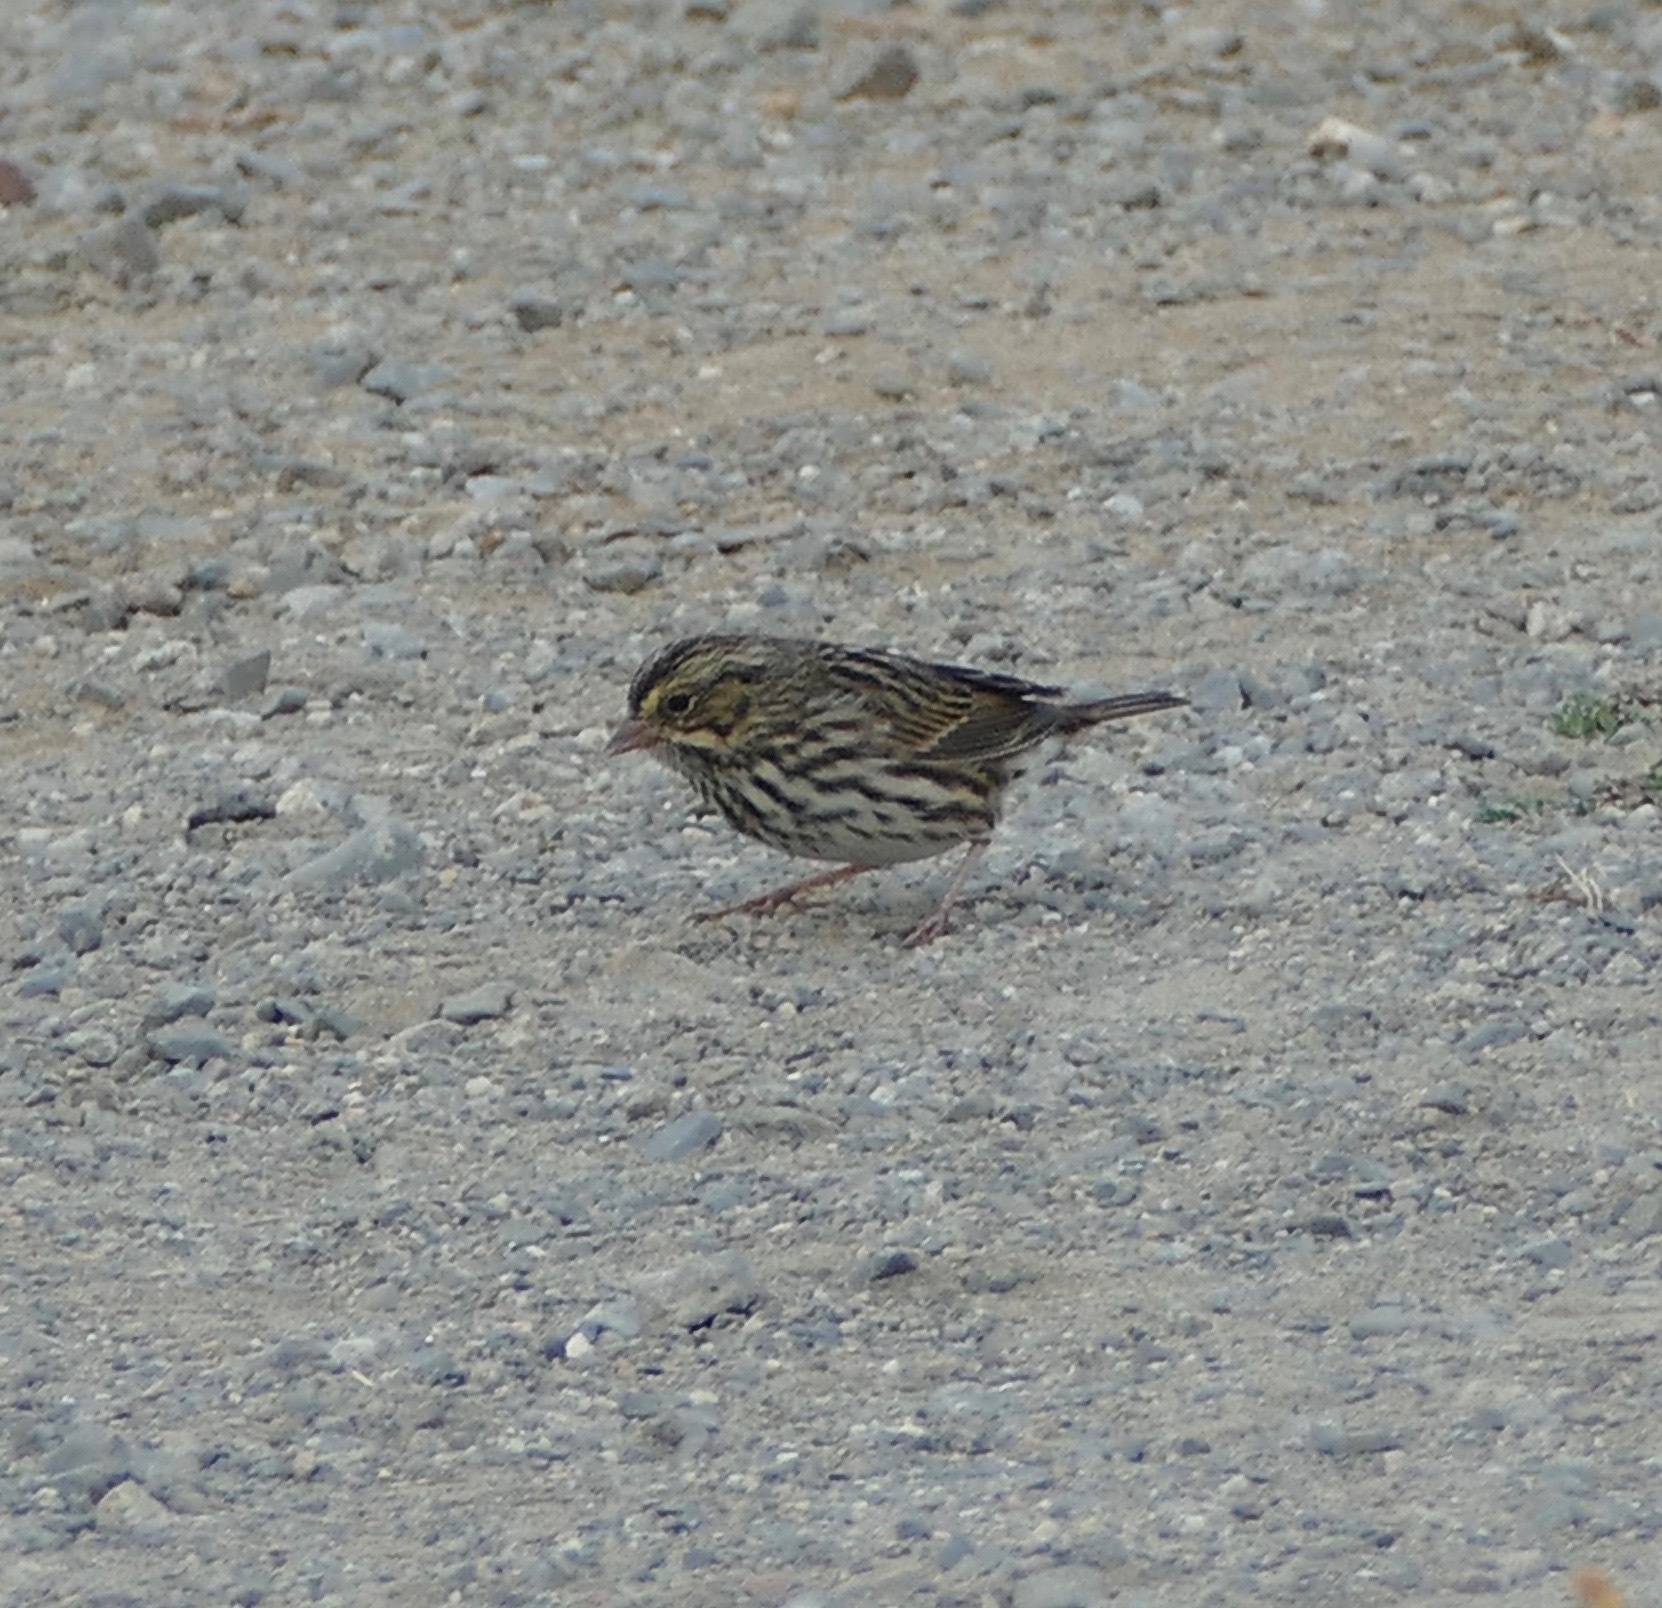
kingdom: Animalia
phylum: Chordata
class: Aves
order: Passeriformes
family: Passerellidae
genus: Passerculus
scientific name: Passerculus sandwichensis
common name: Savannah sparrow
